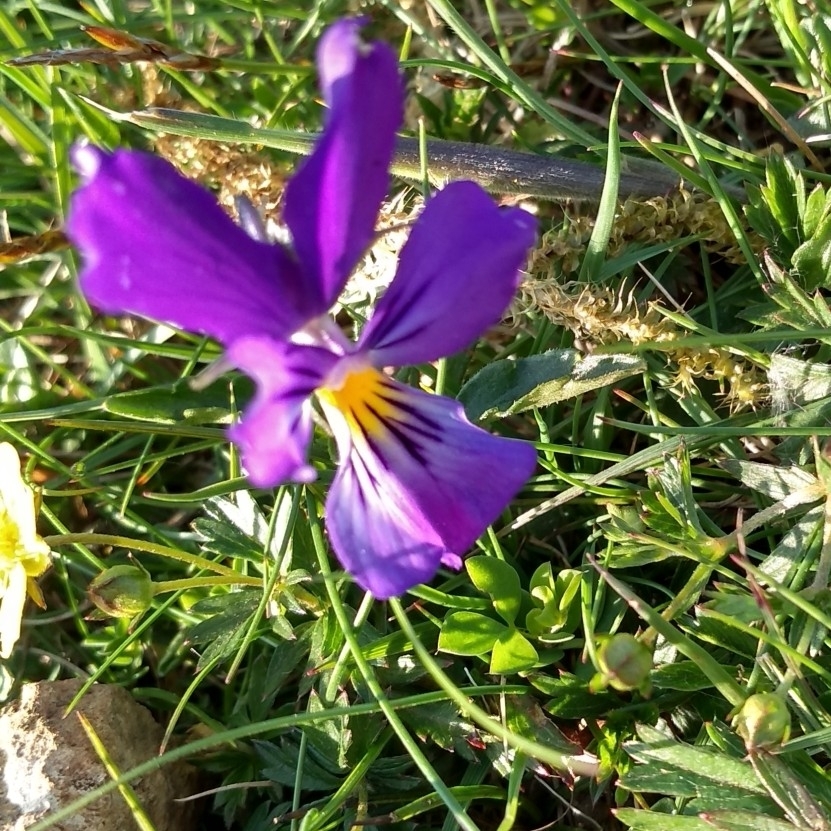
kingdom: Plantae
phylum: Tracheophyta
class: Magnoliopsida
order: Malpighiales
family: Violaceae
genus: Viola
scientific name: Viola tricolor
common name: Pansy
